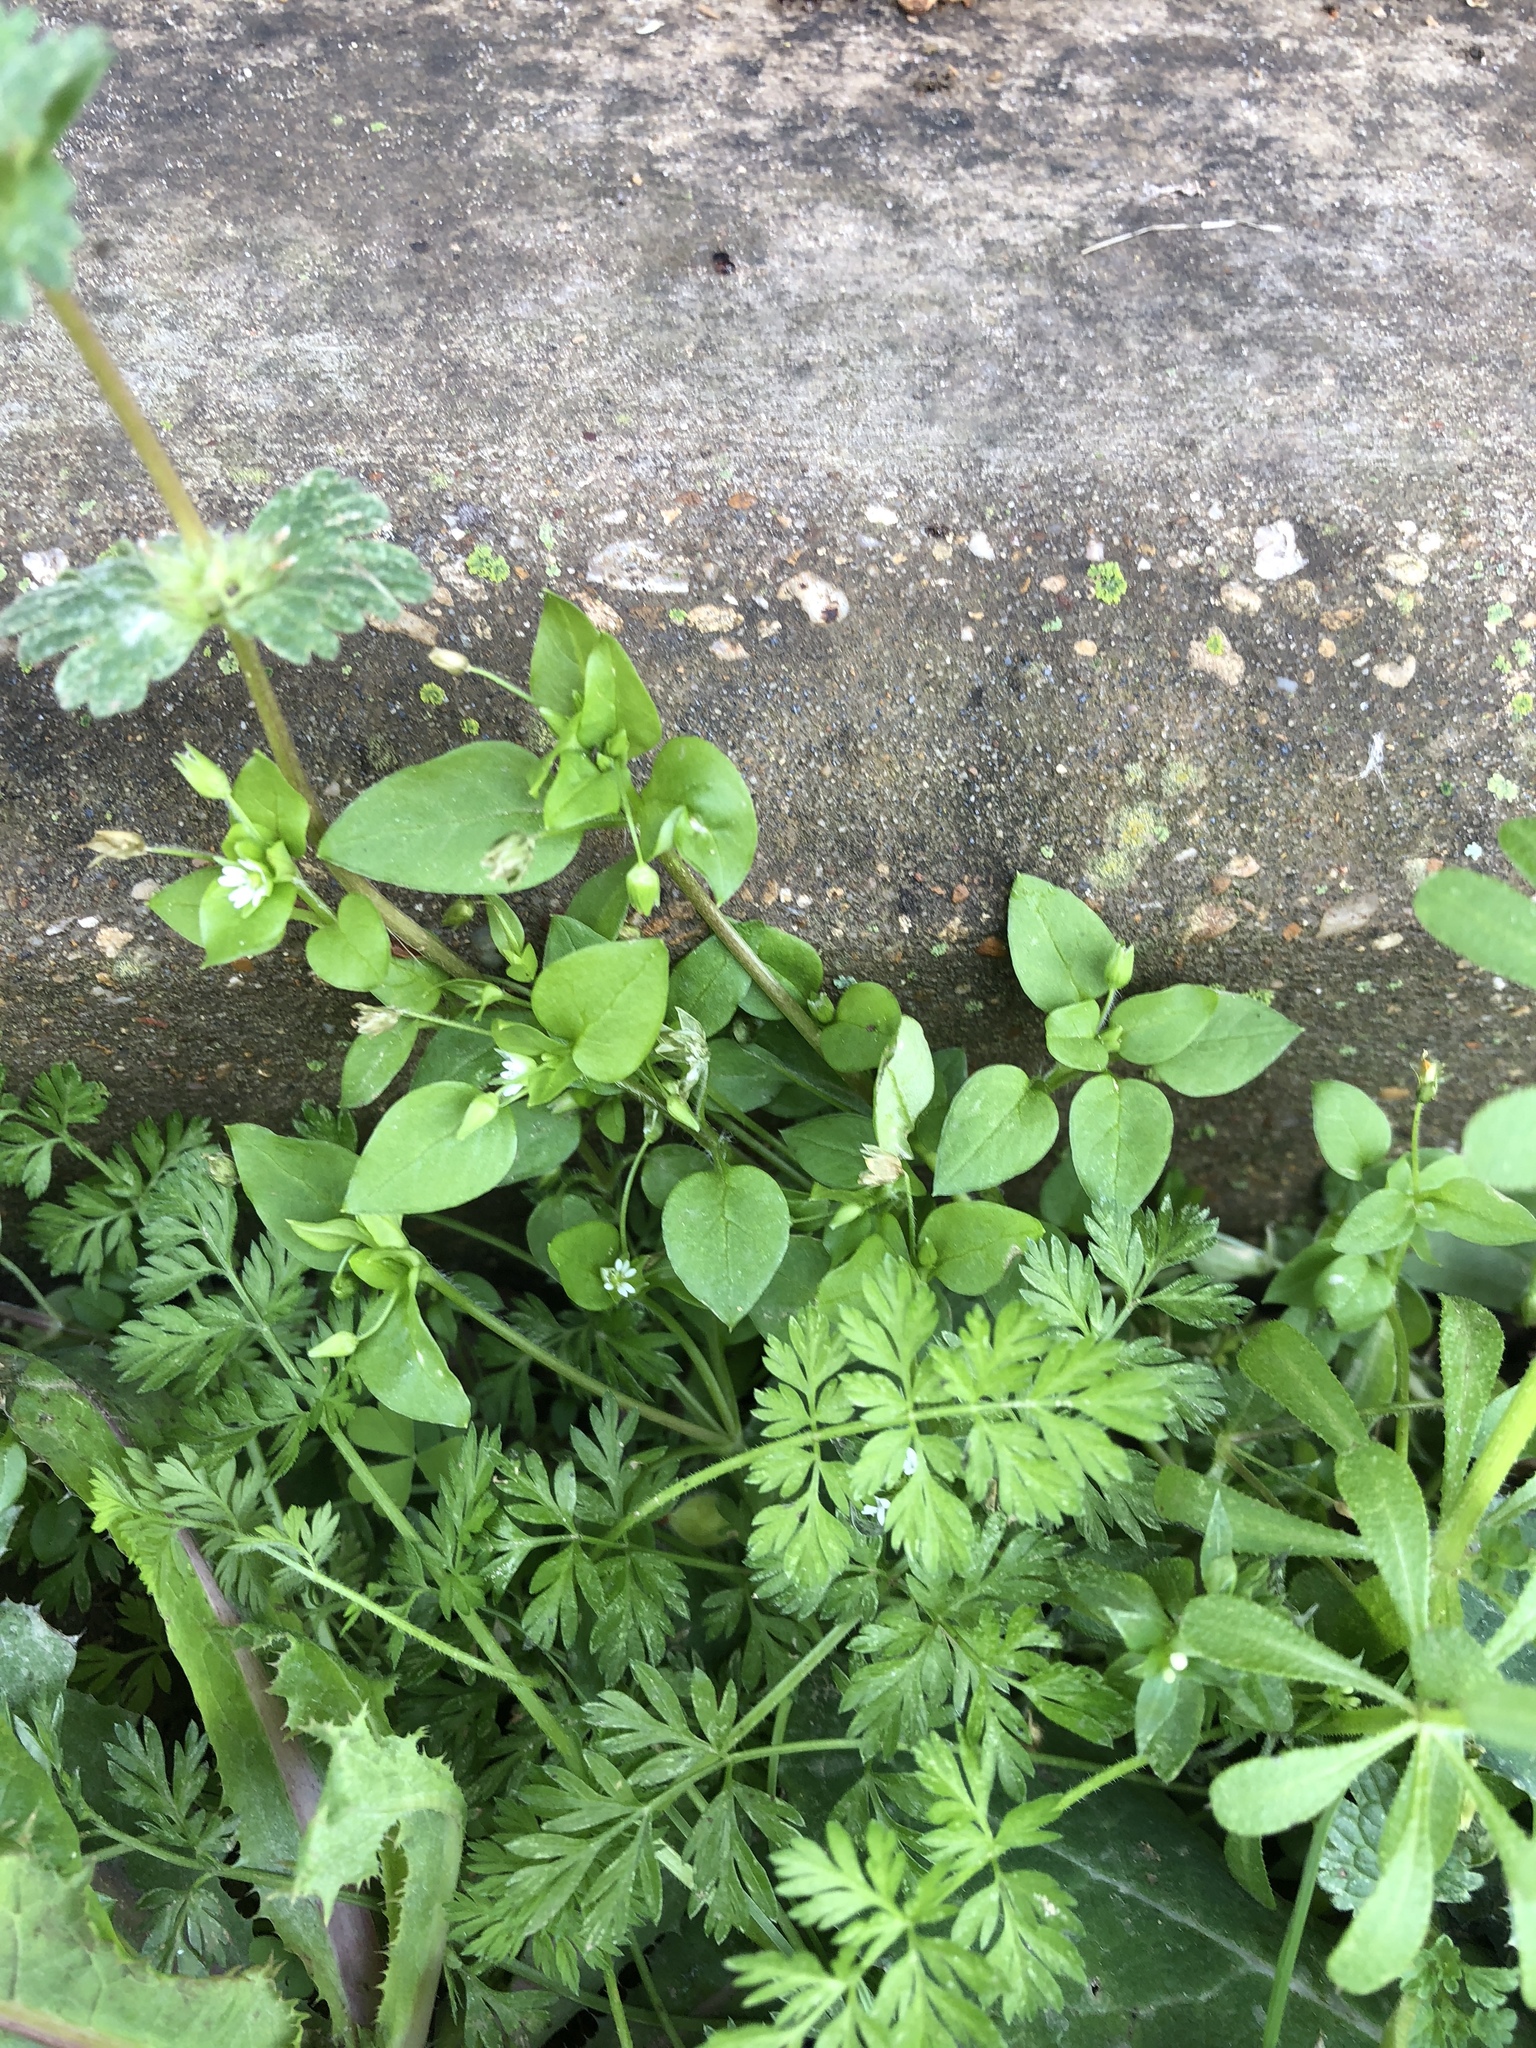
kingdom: Plantae
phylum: Tracheophyta
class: Magnoliopsida
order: Caryophyllales
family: Caryophyllaceae
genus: Stellaria
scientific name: Stellaria media
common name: Common chickweed
